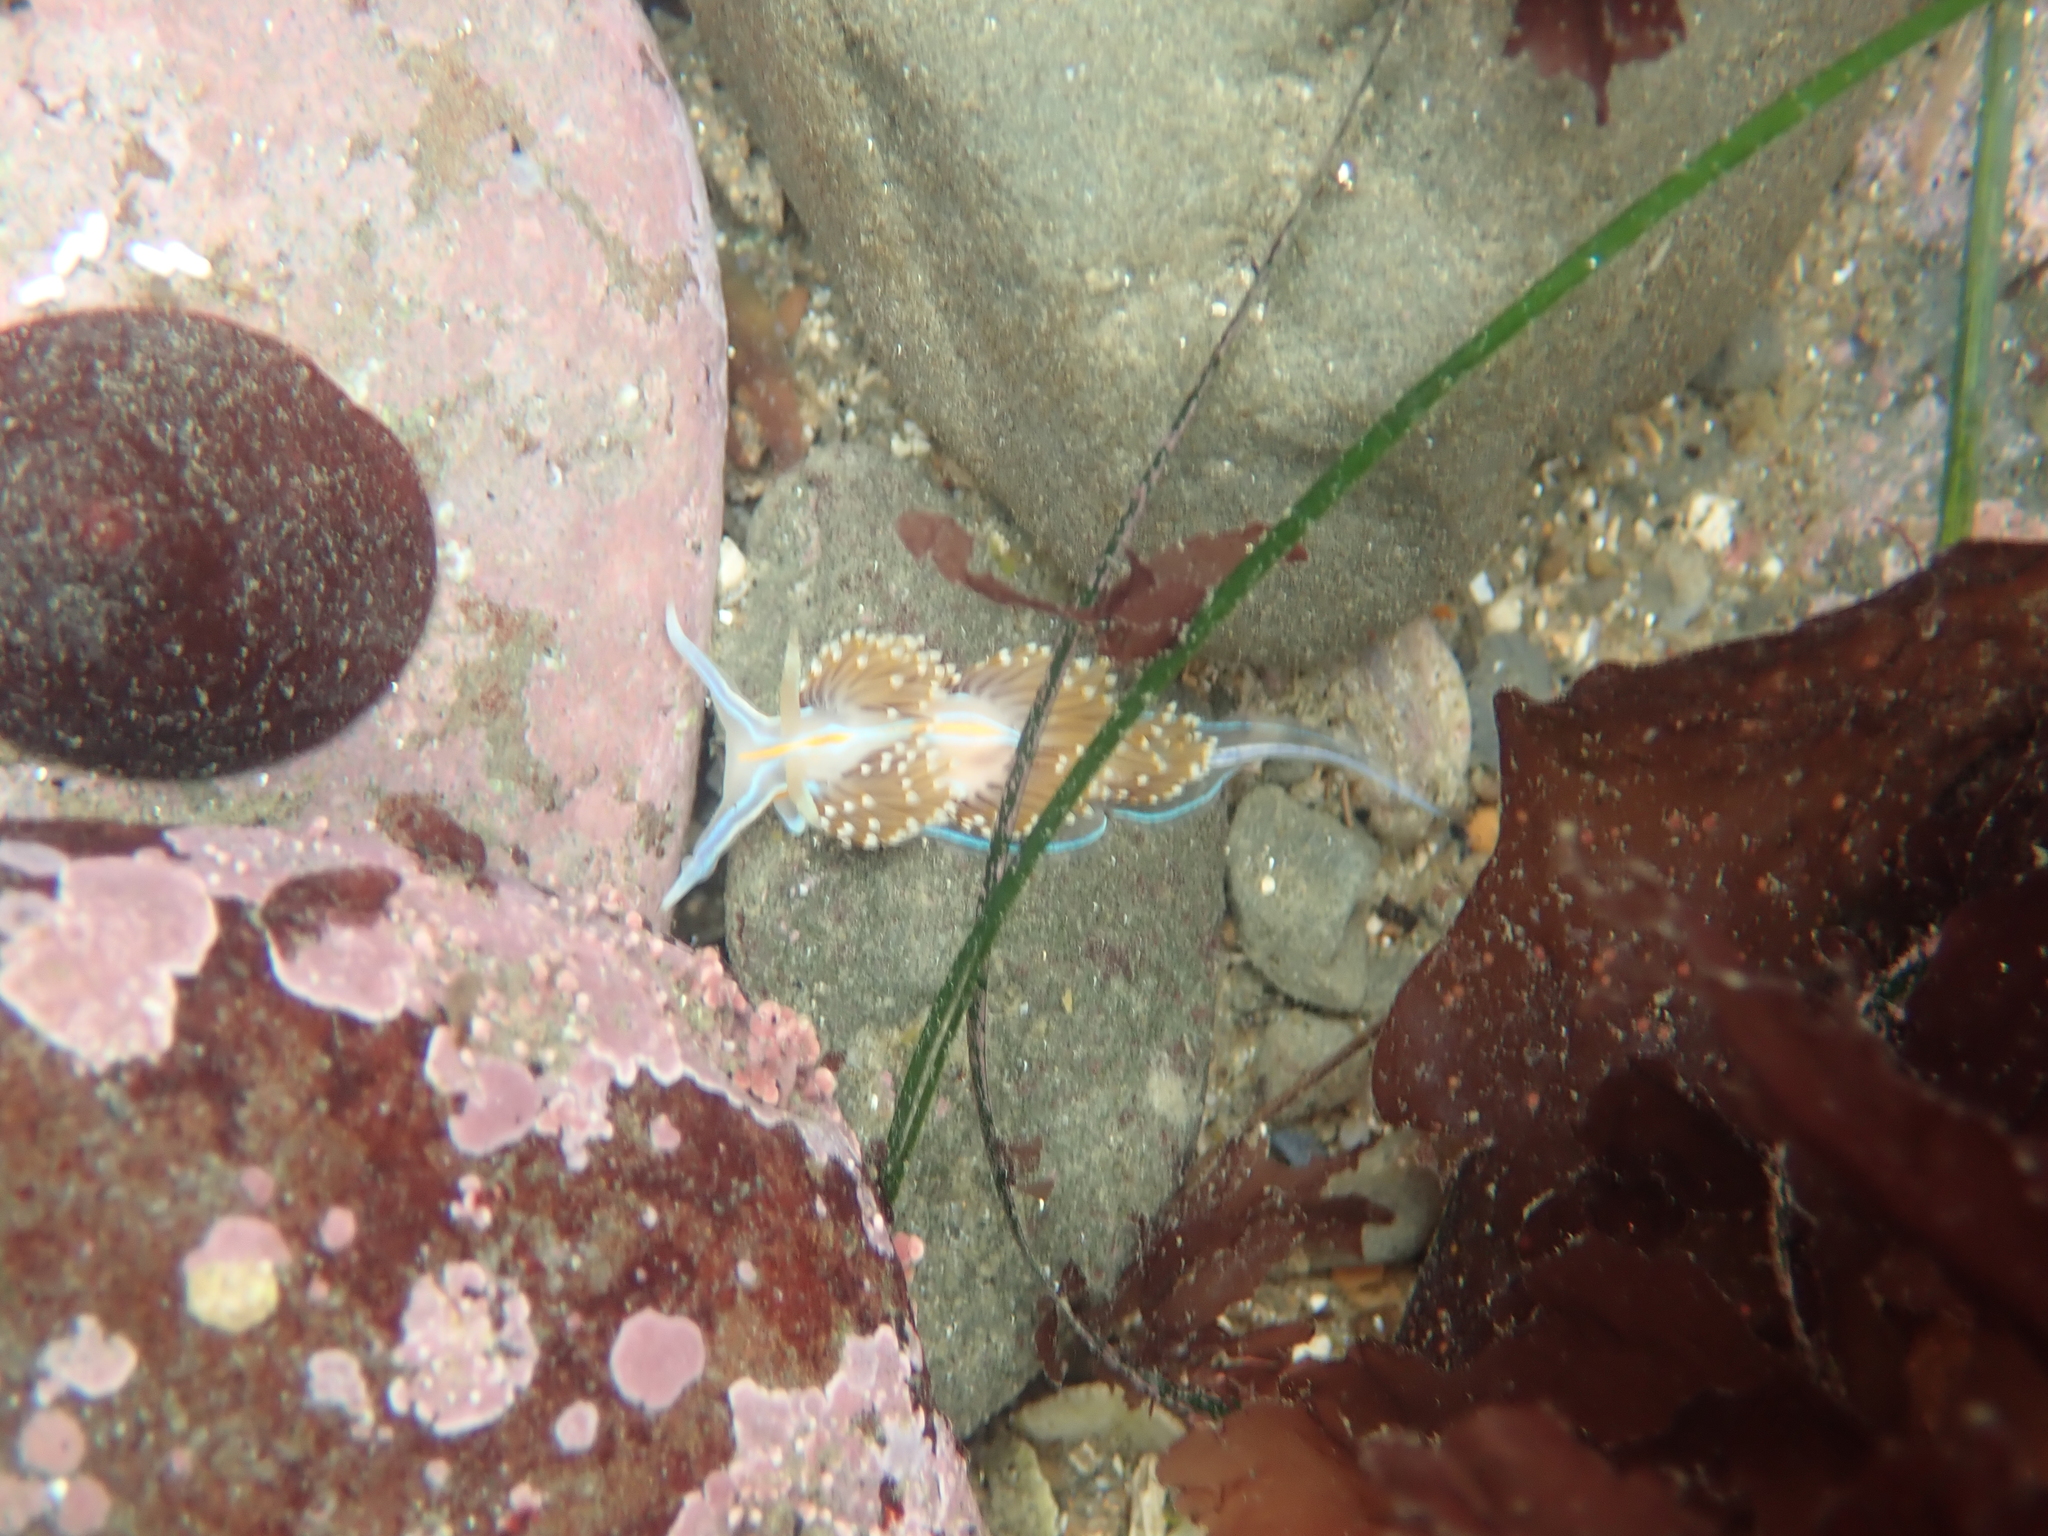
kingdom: Animalia
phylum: Mollusca
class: Gastropoda
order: Nudibranchia
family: Myrrhinidae
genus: Hermissenda
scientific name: Hermissenda opalescens
